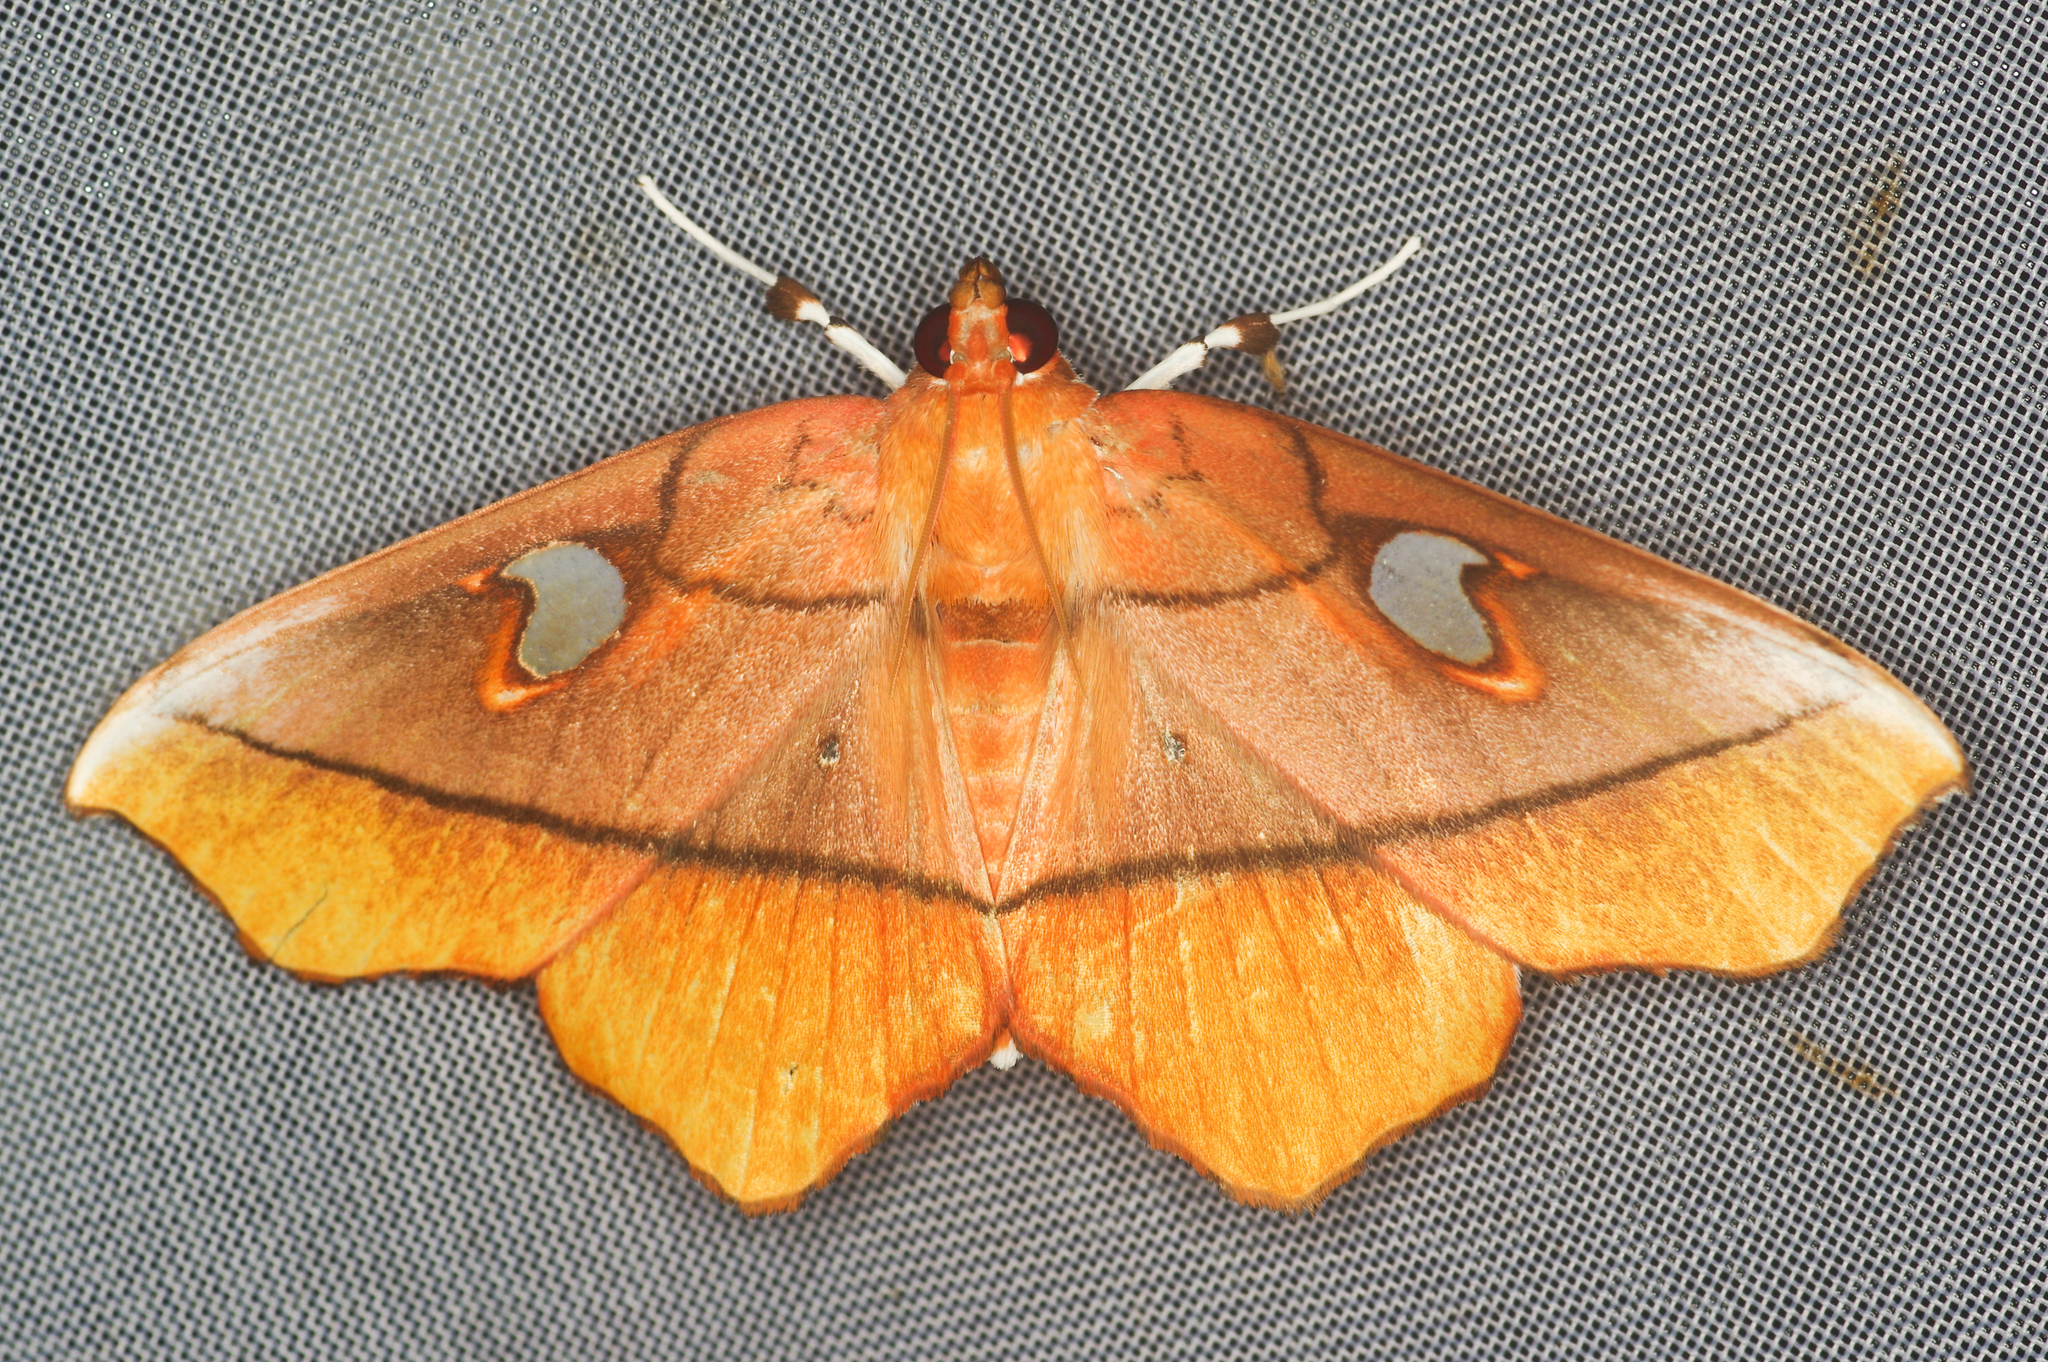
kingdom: Animalia
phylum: Arthropoda
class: Insecta
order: Lepidoptera
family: Crambidae
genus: Midila
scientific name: Midila poppaea
